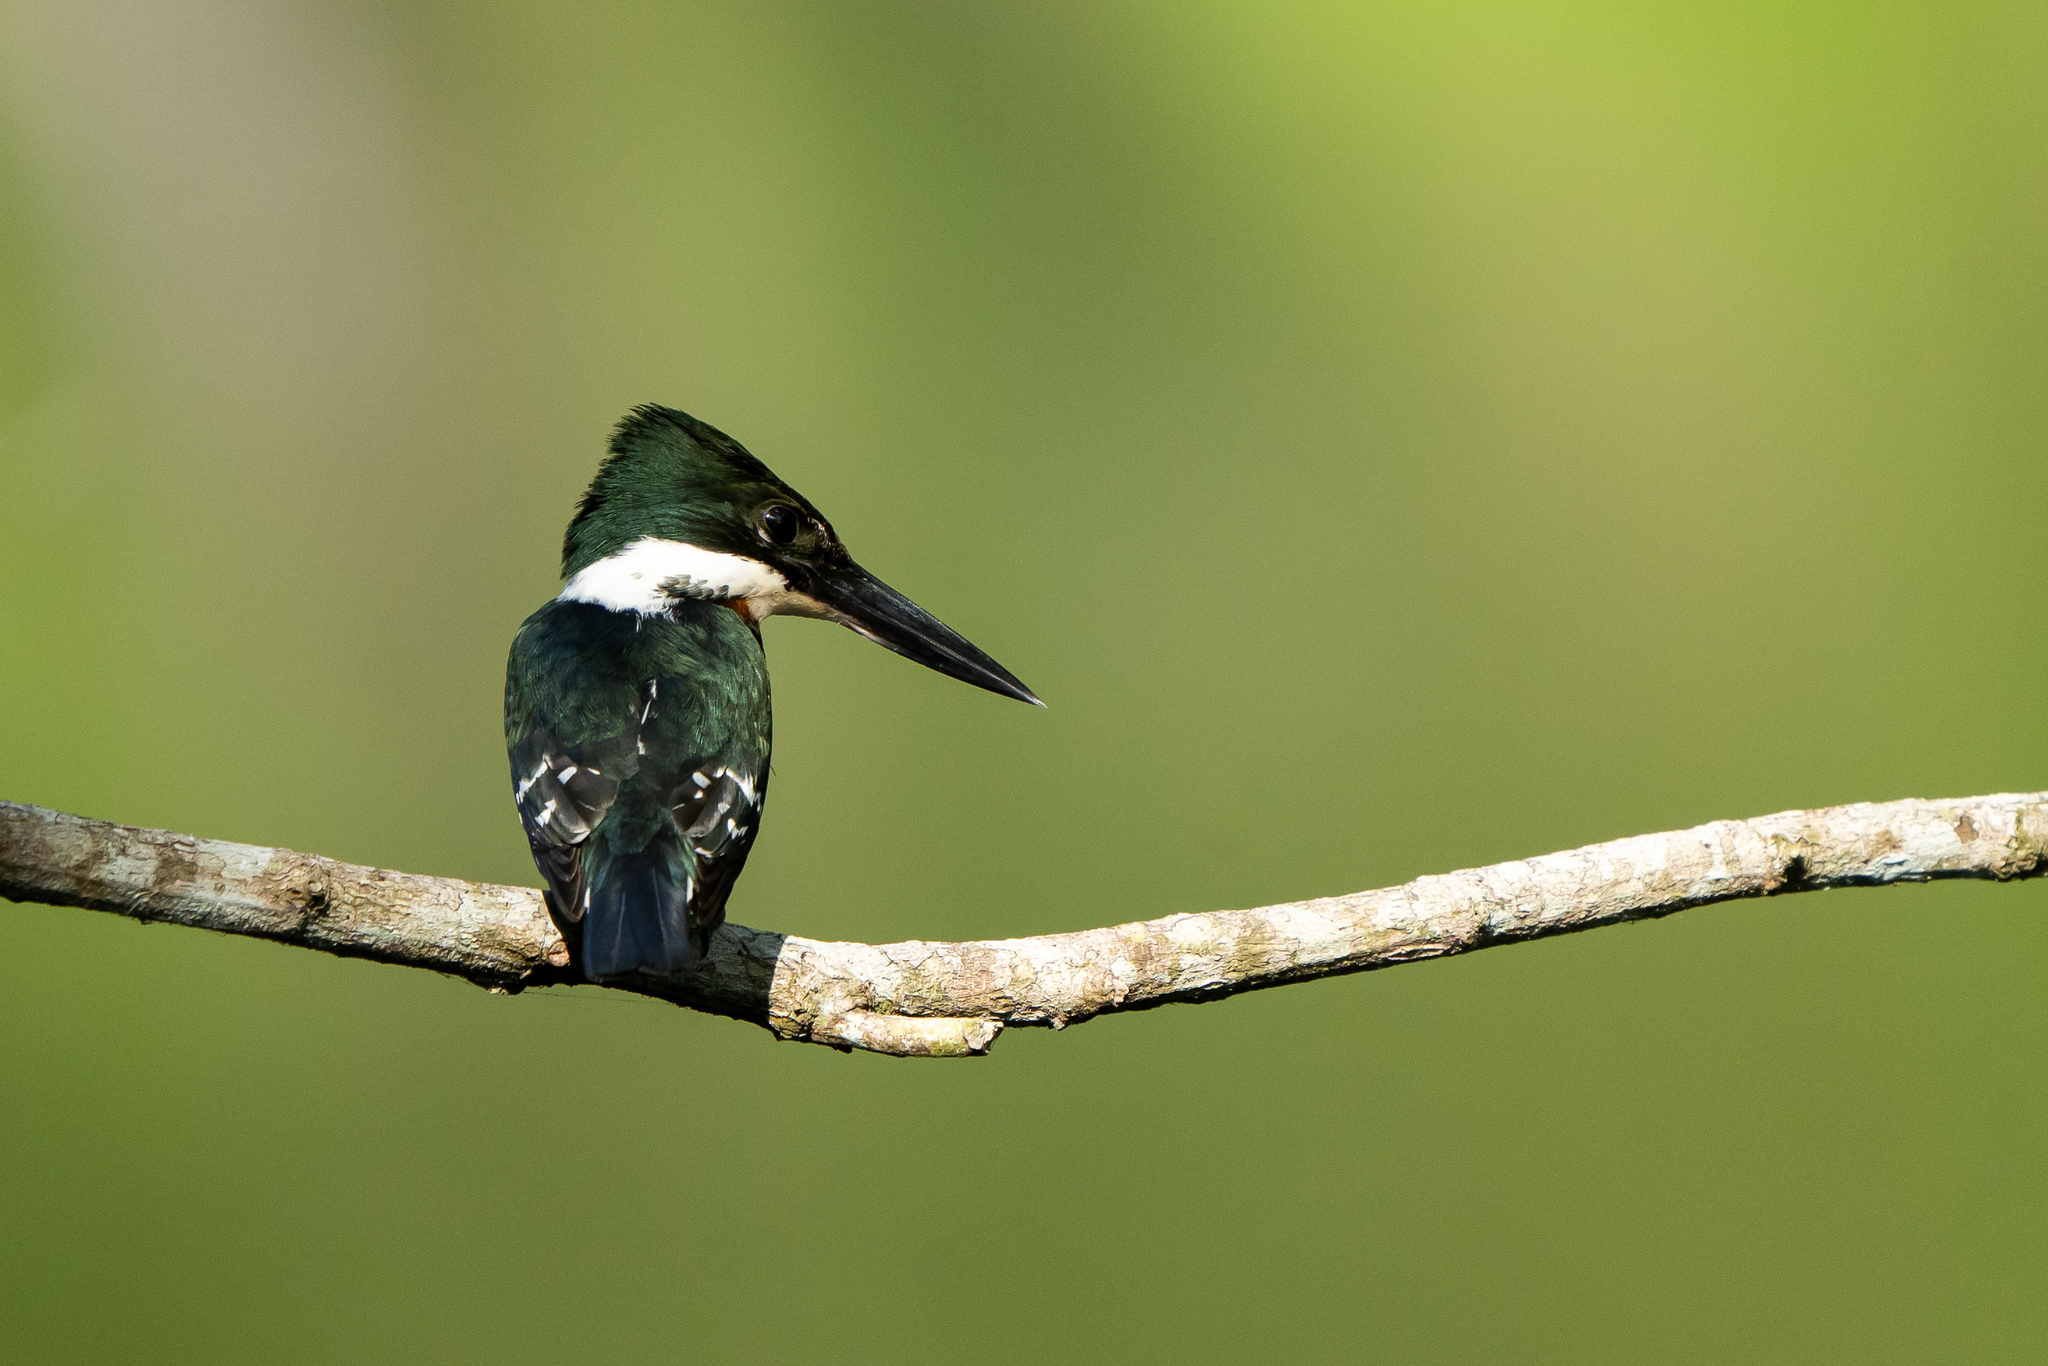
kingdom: Animalia
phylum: Chordata
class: Aves
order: Coraciiformes
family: Alcedinidae
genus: Chloroceryle
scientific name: Chloroceryle americana
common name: Green kingfisher
